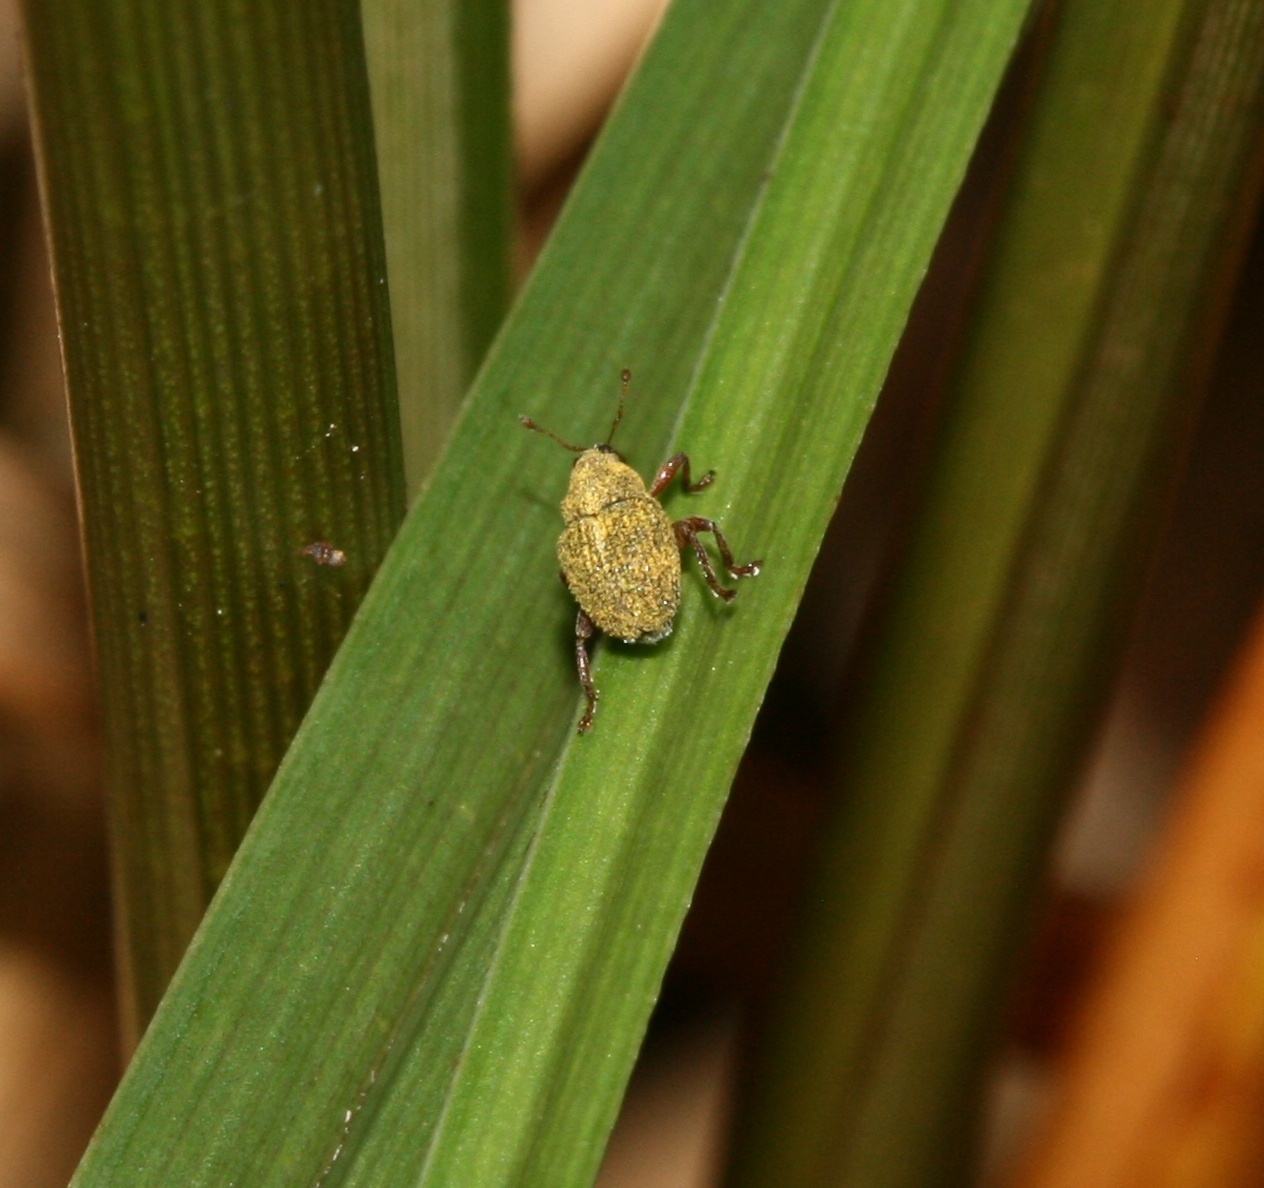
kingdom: Animalia
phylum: Arthropoda
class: Insecta
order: Coleoptera
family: Curculionidae
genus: Micrelus
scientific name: Micrelus ericae
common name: Small heather weevil
